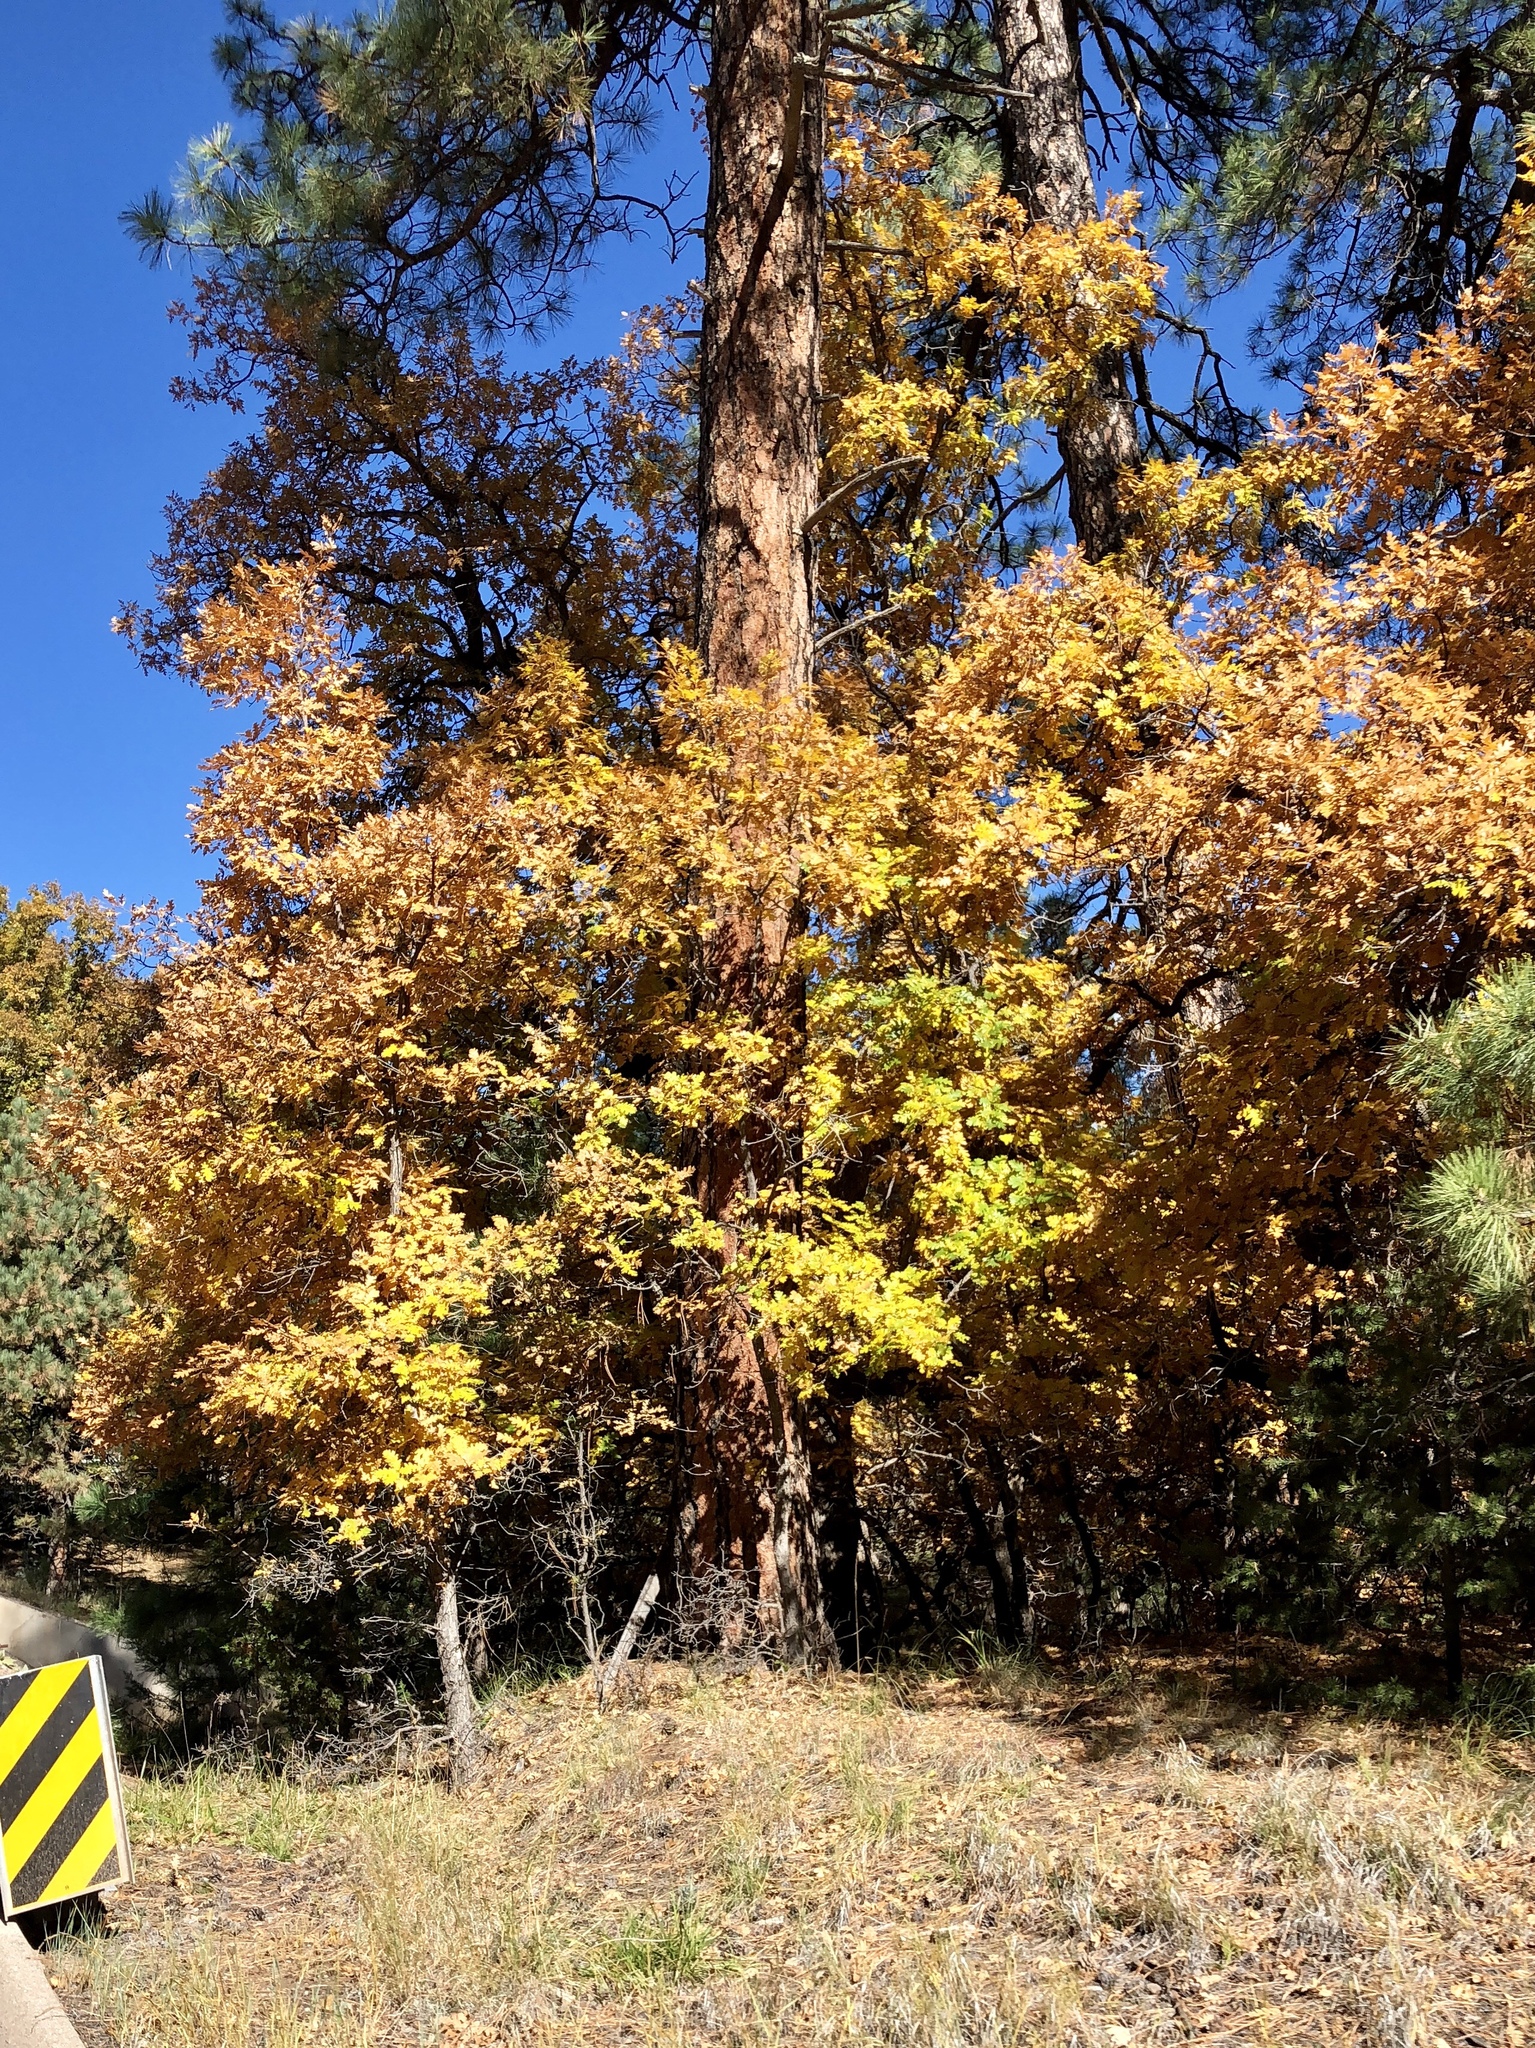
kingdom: Plantae
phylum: Tracheophyta
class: Magnoliopsida
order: Sapindales
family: Sapindaceae
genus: Acer
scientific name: Acer grandidentatum
